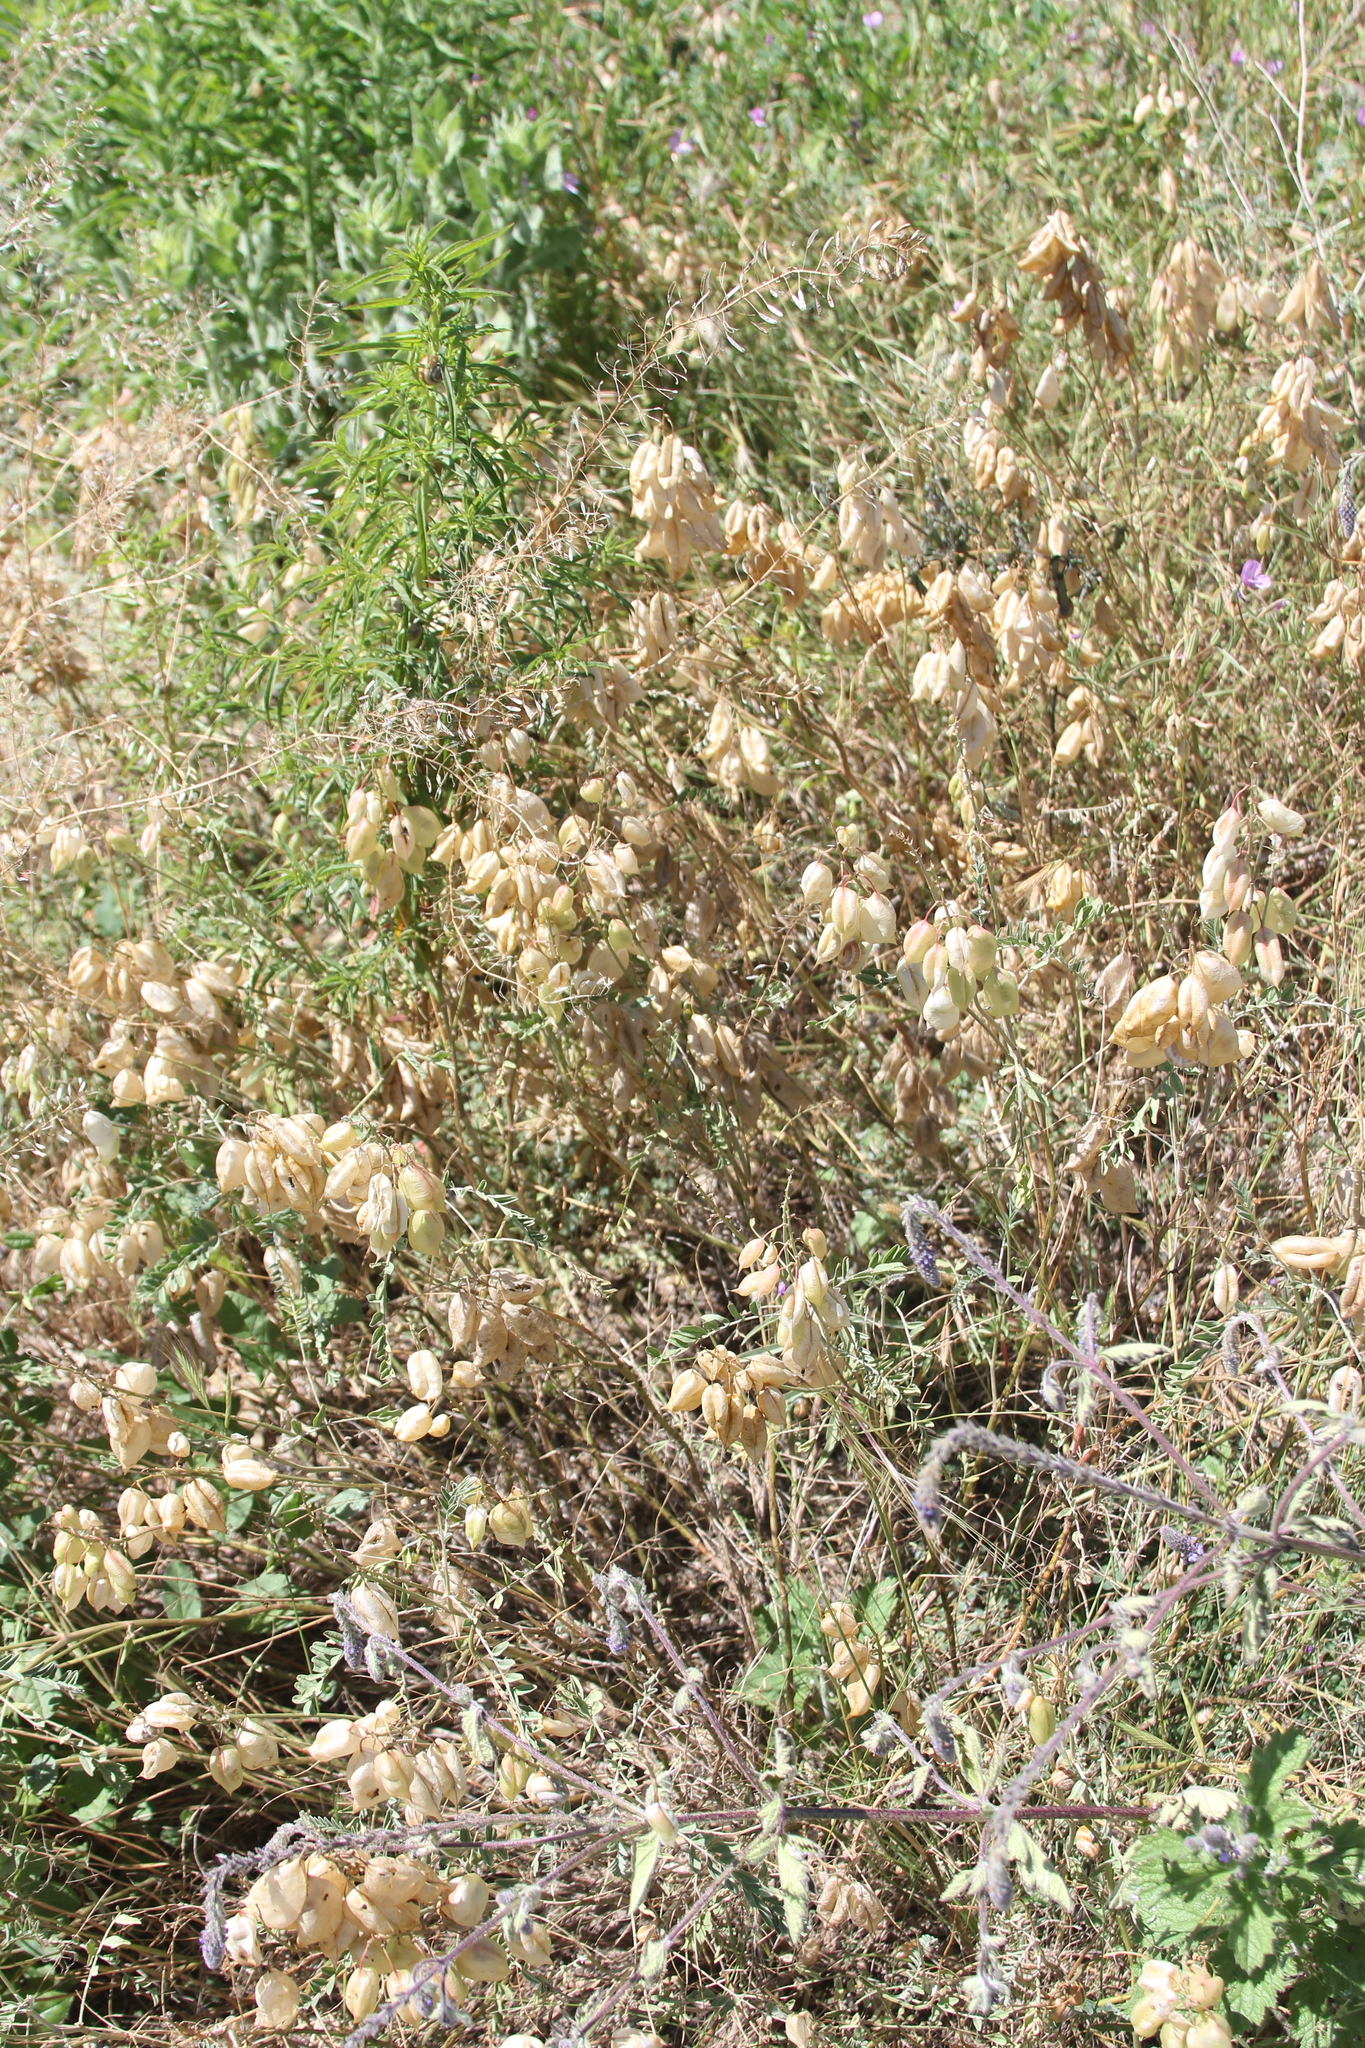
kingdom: Plantae
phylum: Tracheophyta
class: Magnoliopsida
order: Fabales
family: Fabaceae
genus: Astragalus
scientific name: Astragalus trichopodus
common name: Santa barbara milk-vetch
